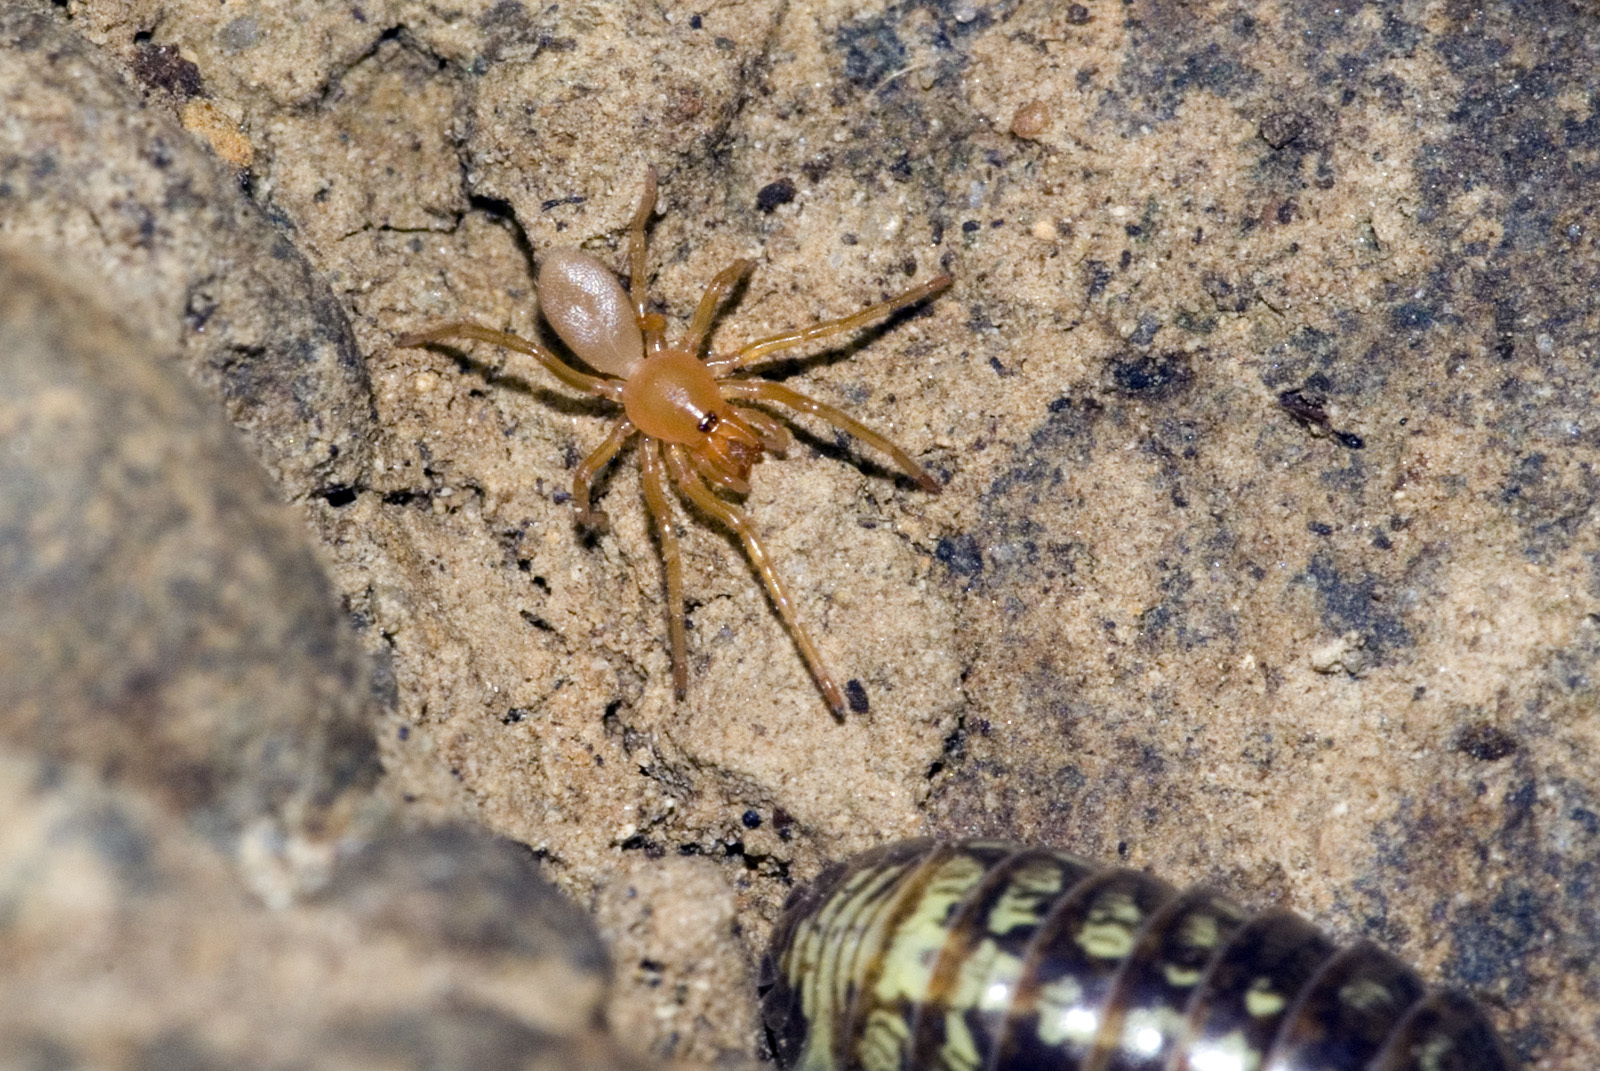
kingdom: Animalia
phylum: Arthropoda
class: Arachnida
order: Araneae
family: Dysderidae
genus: Dysdera
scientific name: Dysdera crocata
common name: Woodlouse spider
